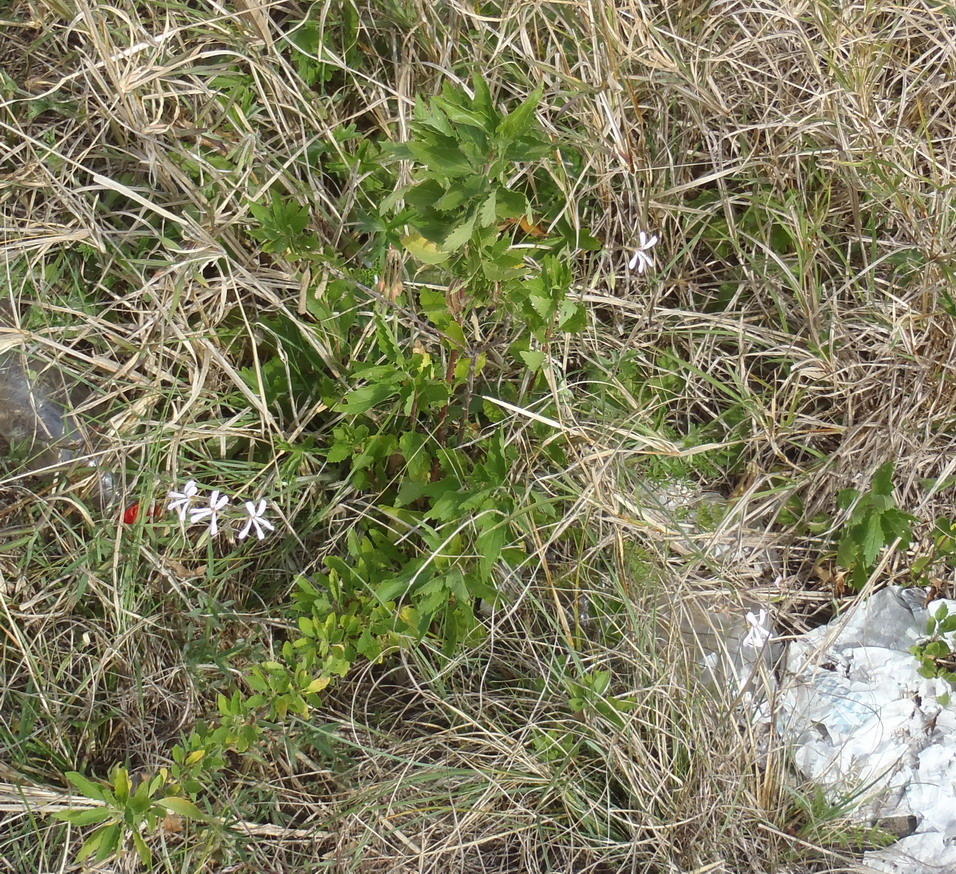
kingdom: Plantae
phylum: Tracheophyta
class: Magnoliopsida
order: Geraniales
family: Geraniaceae
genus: Pelargonium
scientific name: Pelargonium alchemilloides
